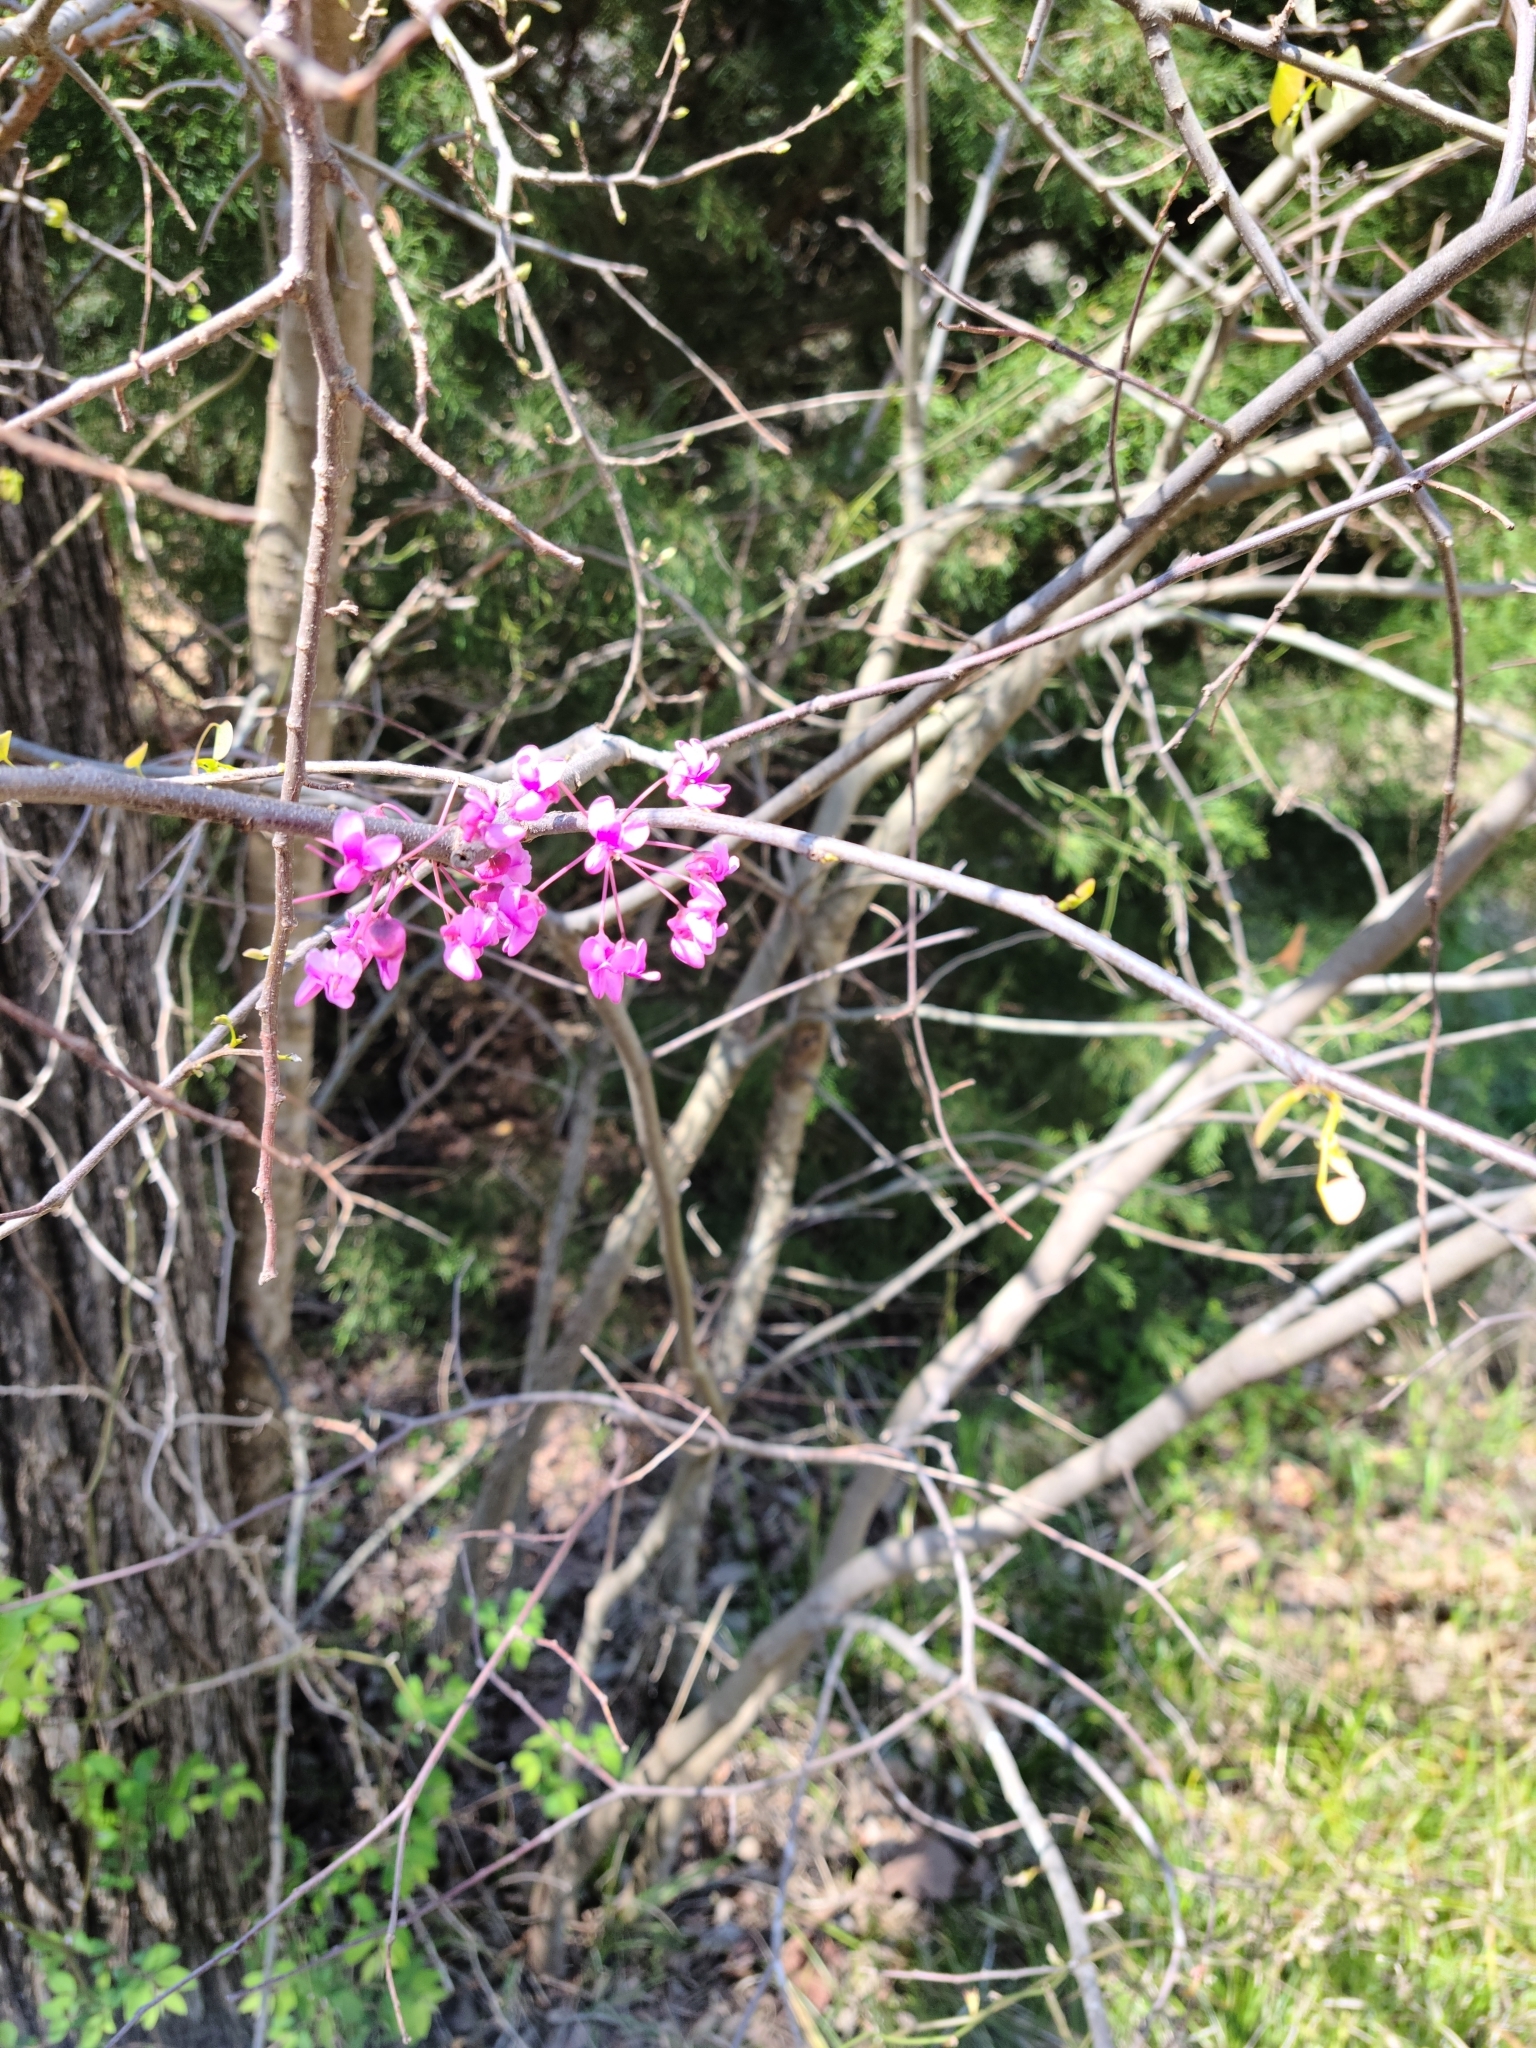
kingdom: Plantae
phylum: Tracheophyta
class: Magnoliopsida
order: Fabales
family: Fabaceae
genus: Cercis
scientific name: Cercis canadensis
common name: Eastern redbud
